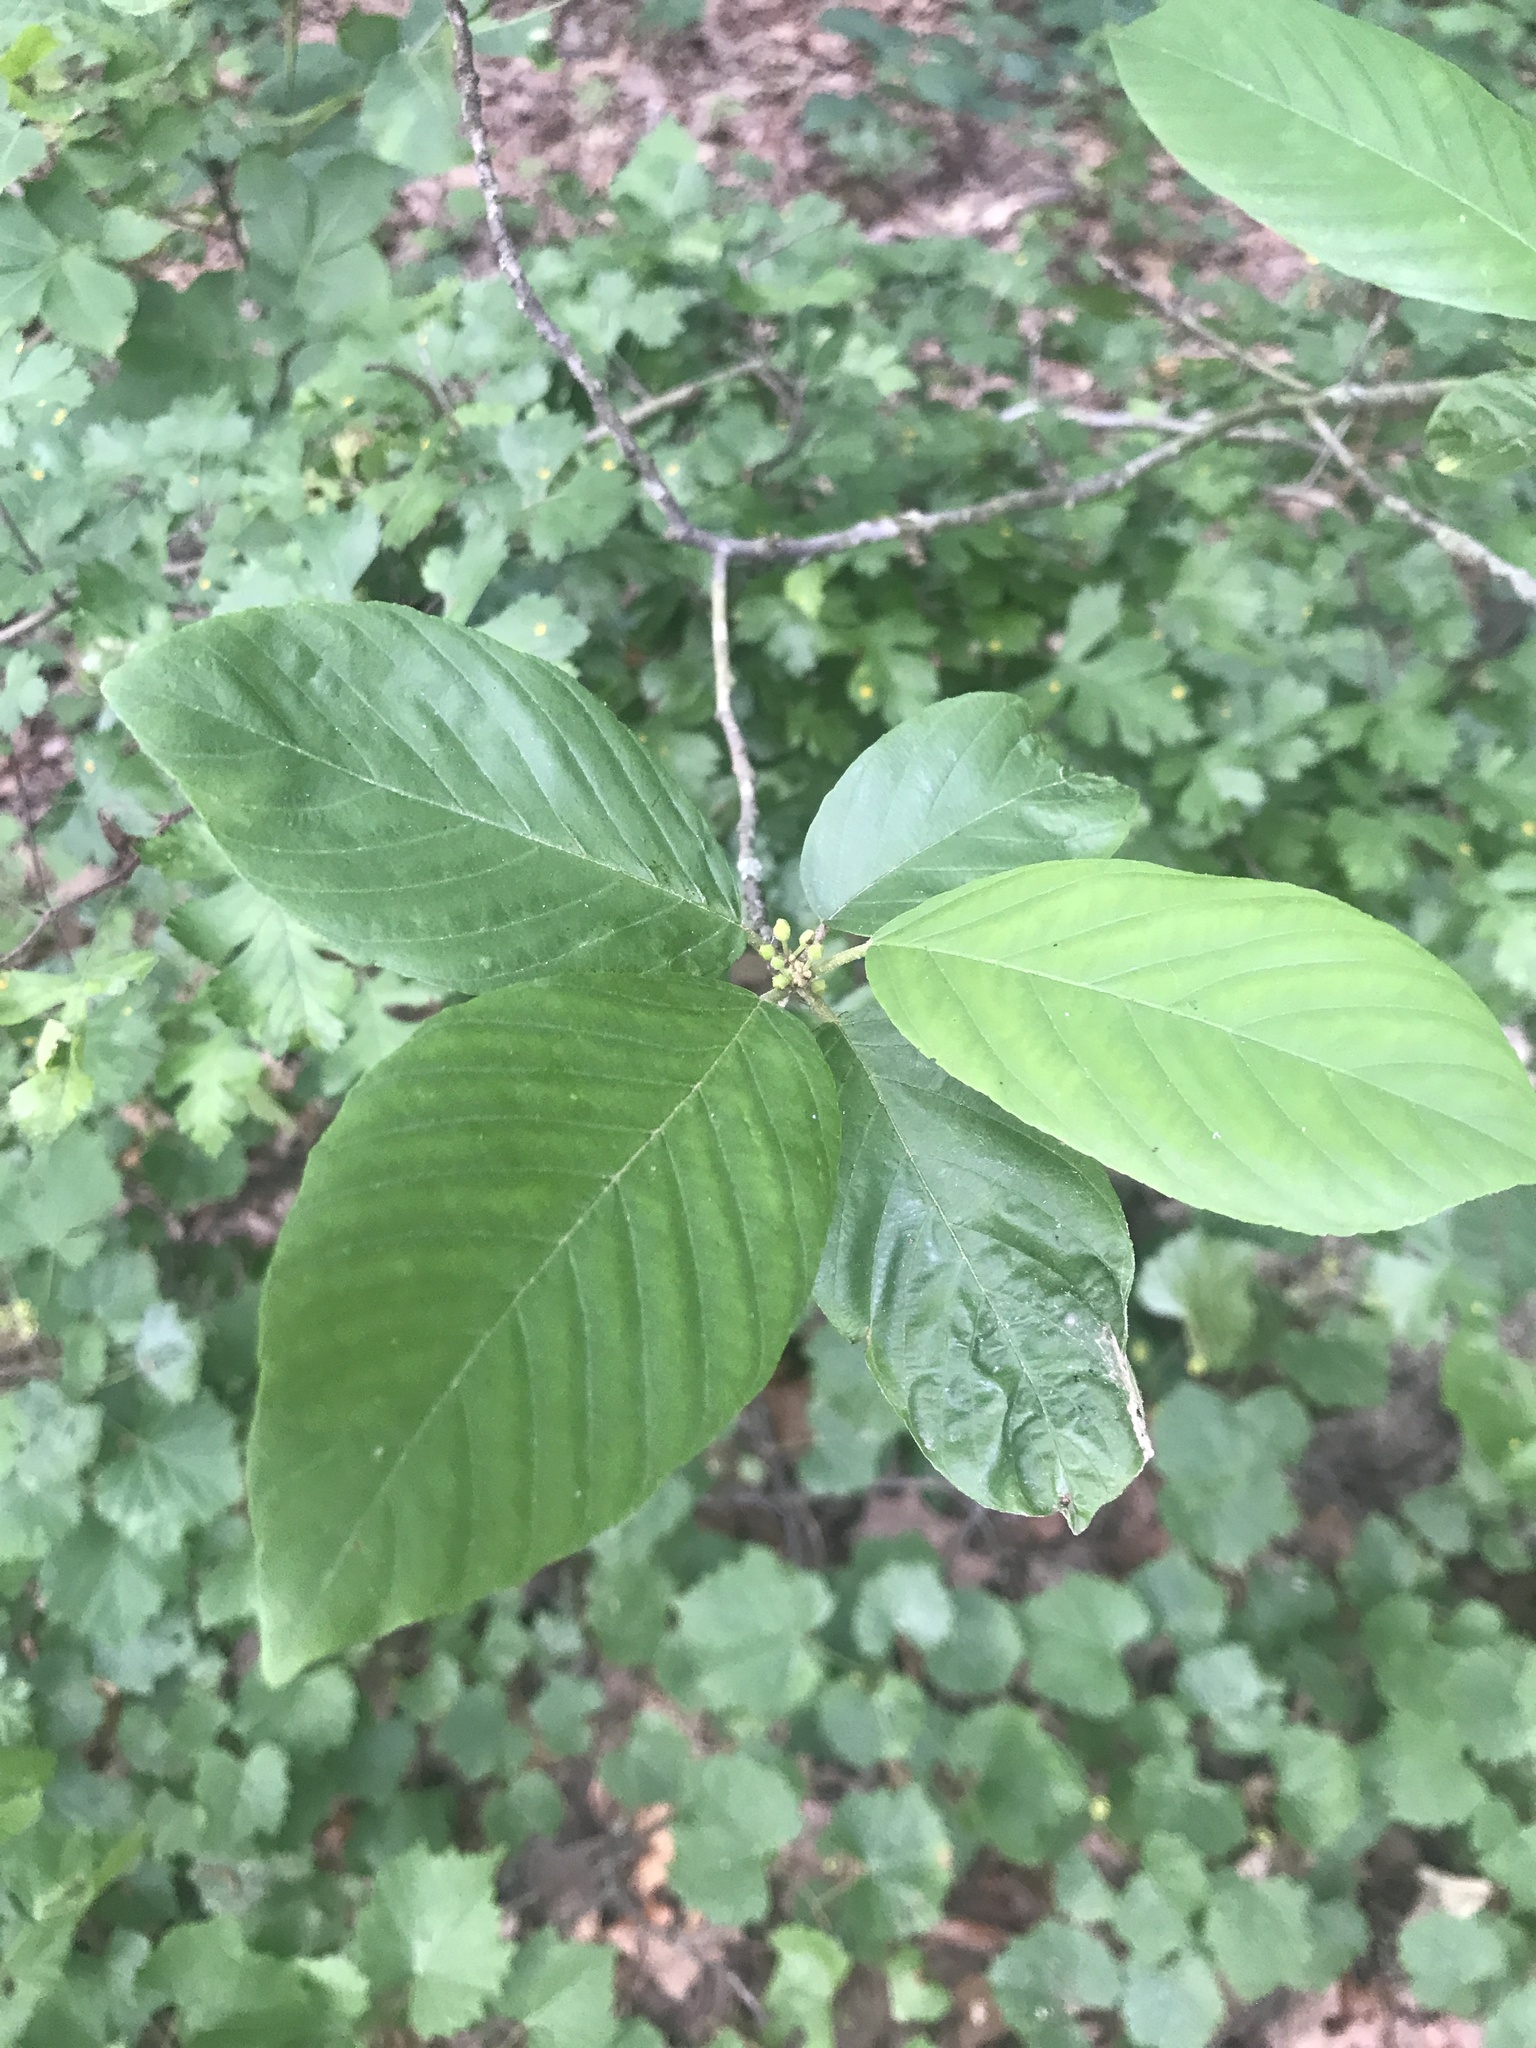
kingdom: Plantae
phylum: Tracheophyta
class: Magnoliopsida
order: Rosales
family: Rhamnaceae
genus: Frangula
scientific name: Frangula caroliniana
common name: Carolina buckthorn
